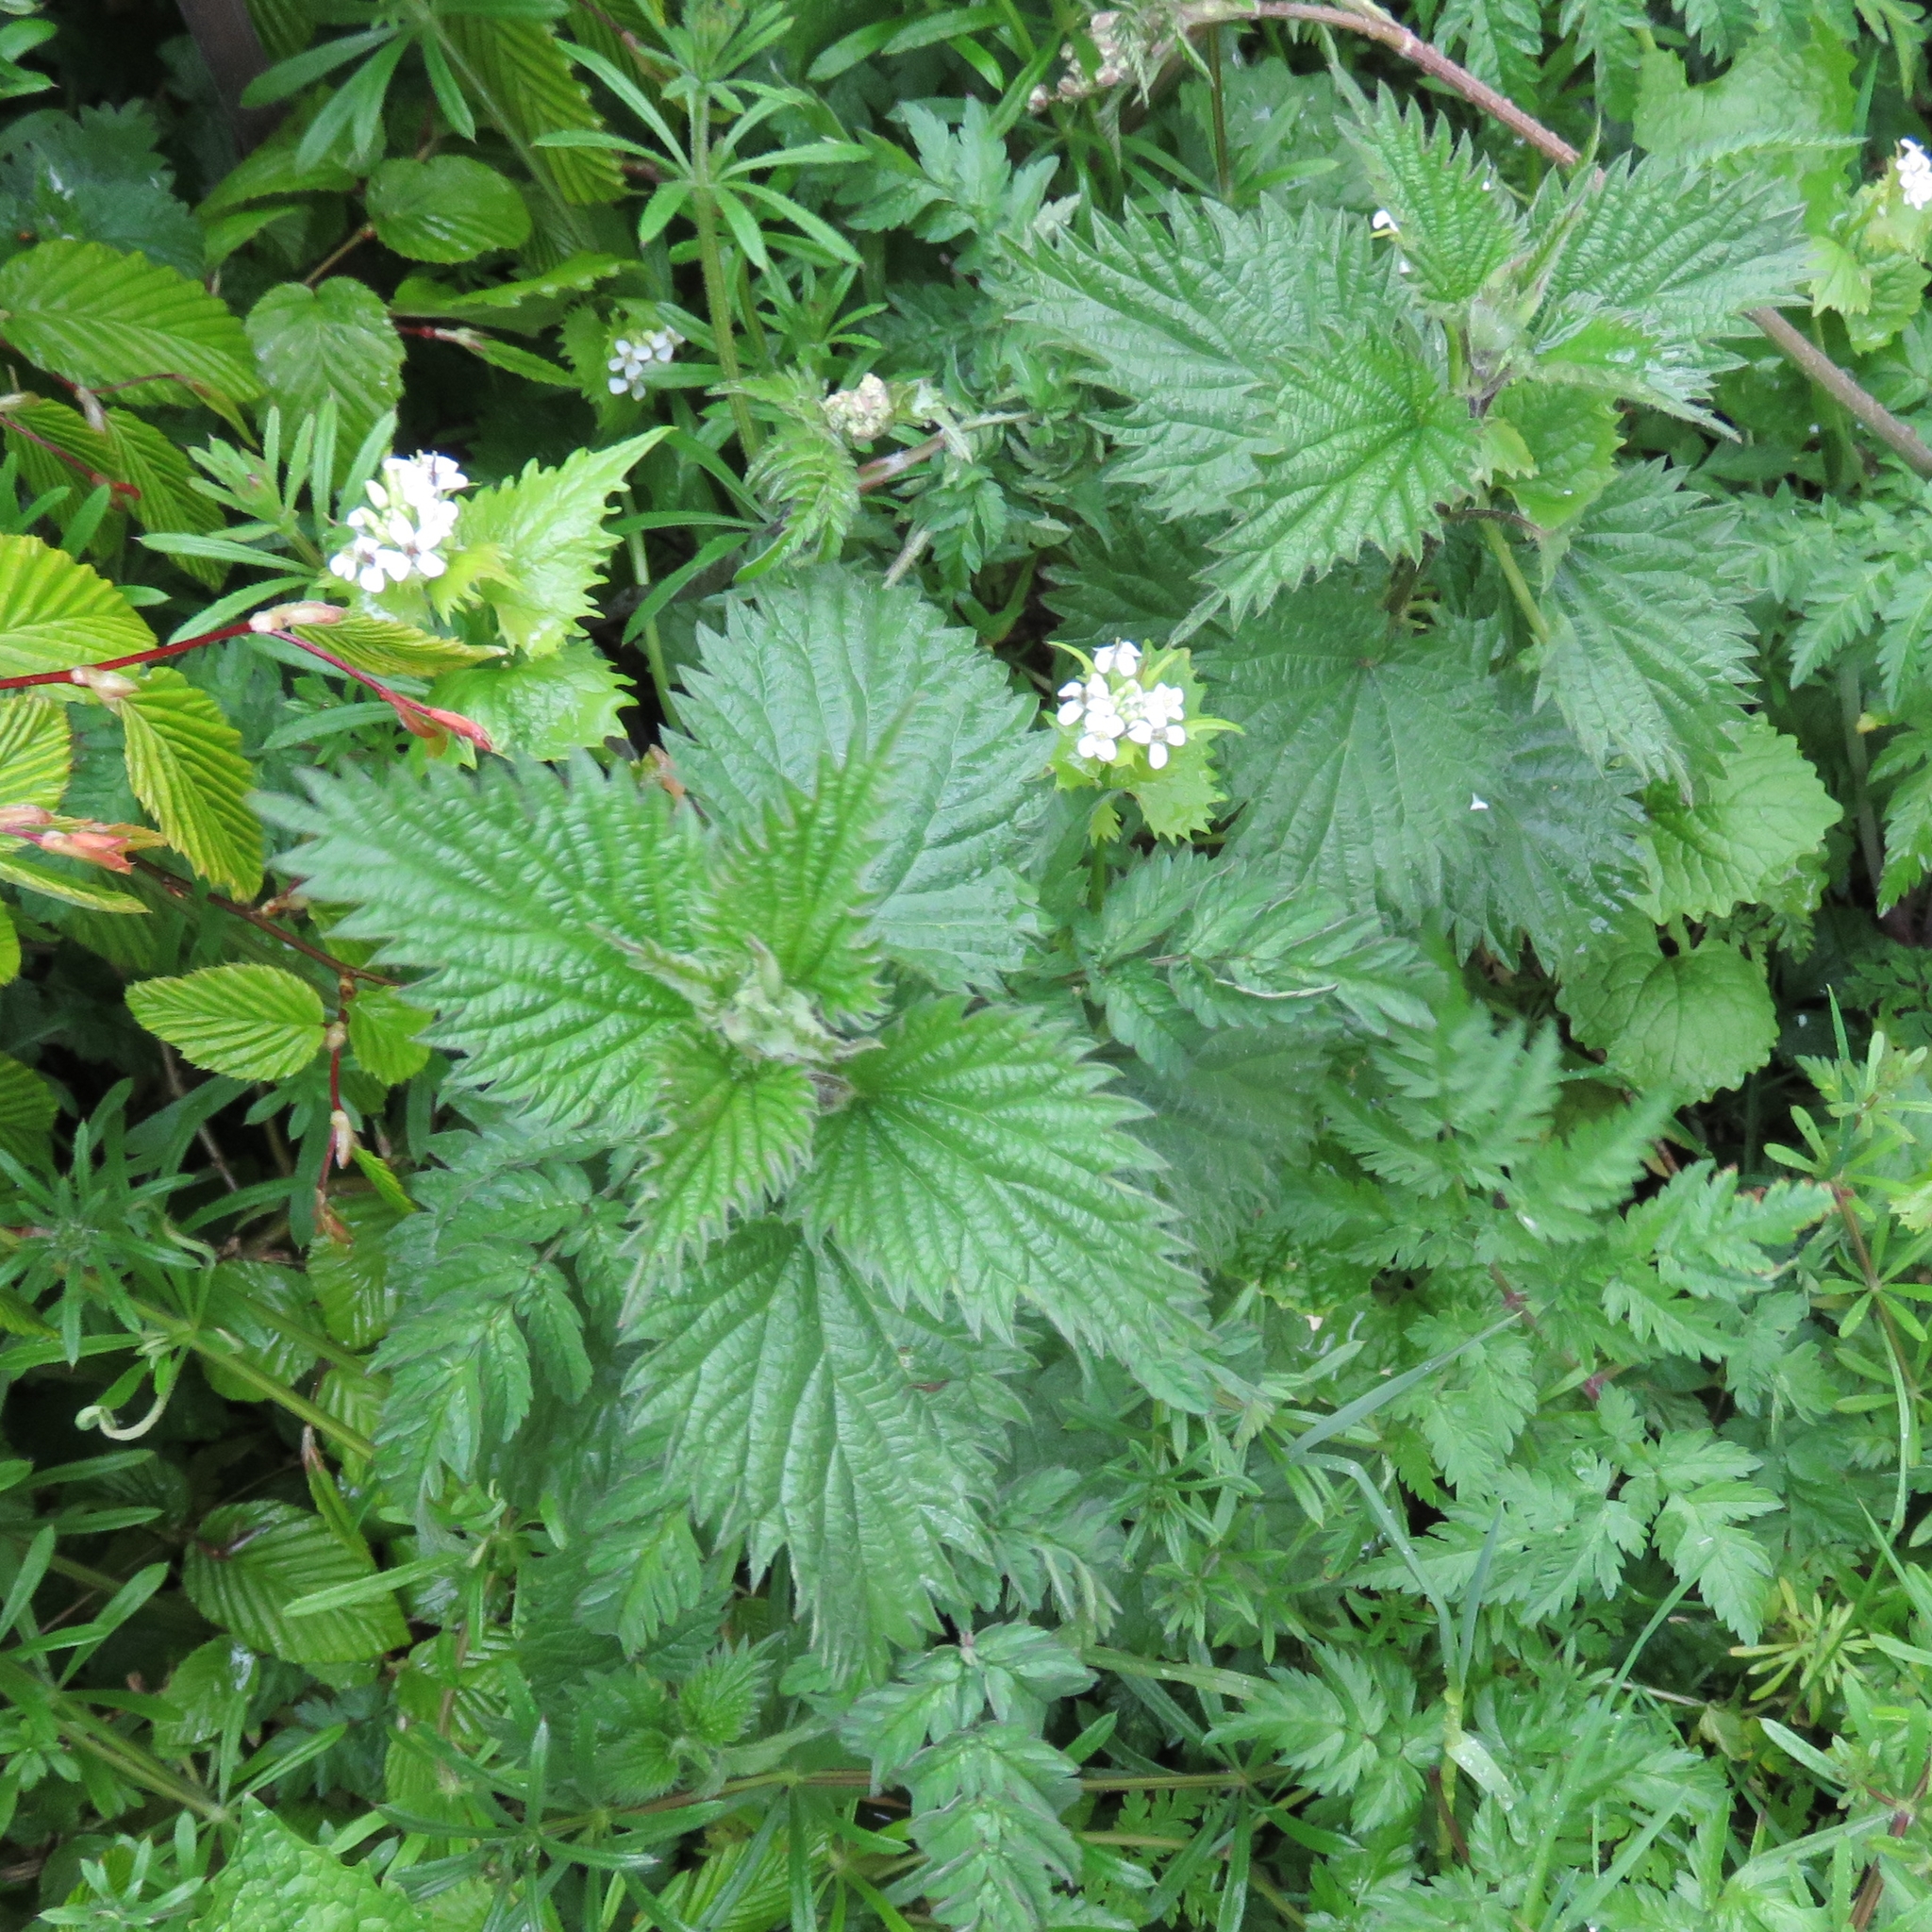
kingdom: Plantae
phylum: Tracheophyta
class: Magnoliopsida
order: Rosales
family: Urticaceae
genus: Urtica
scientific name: Urtica dioica
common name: Common nettle
